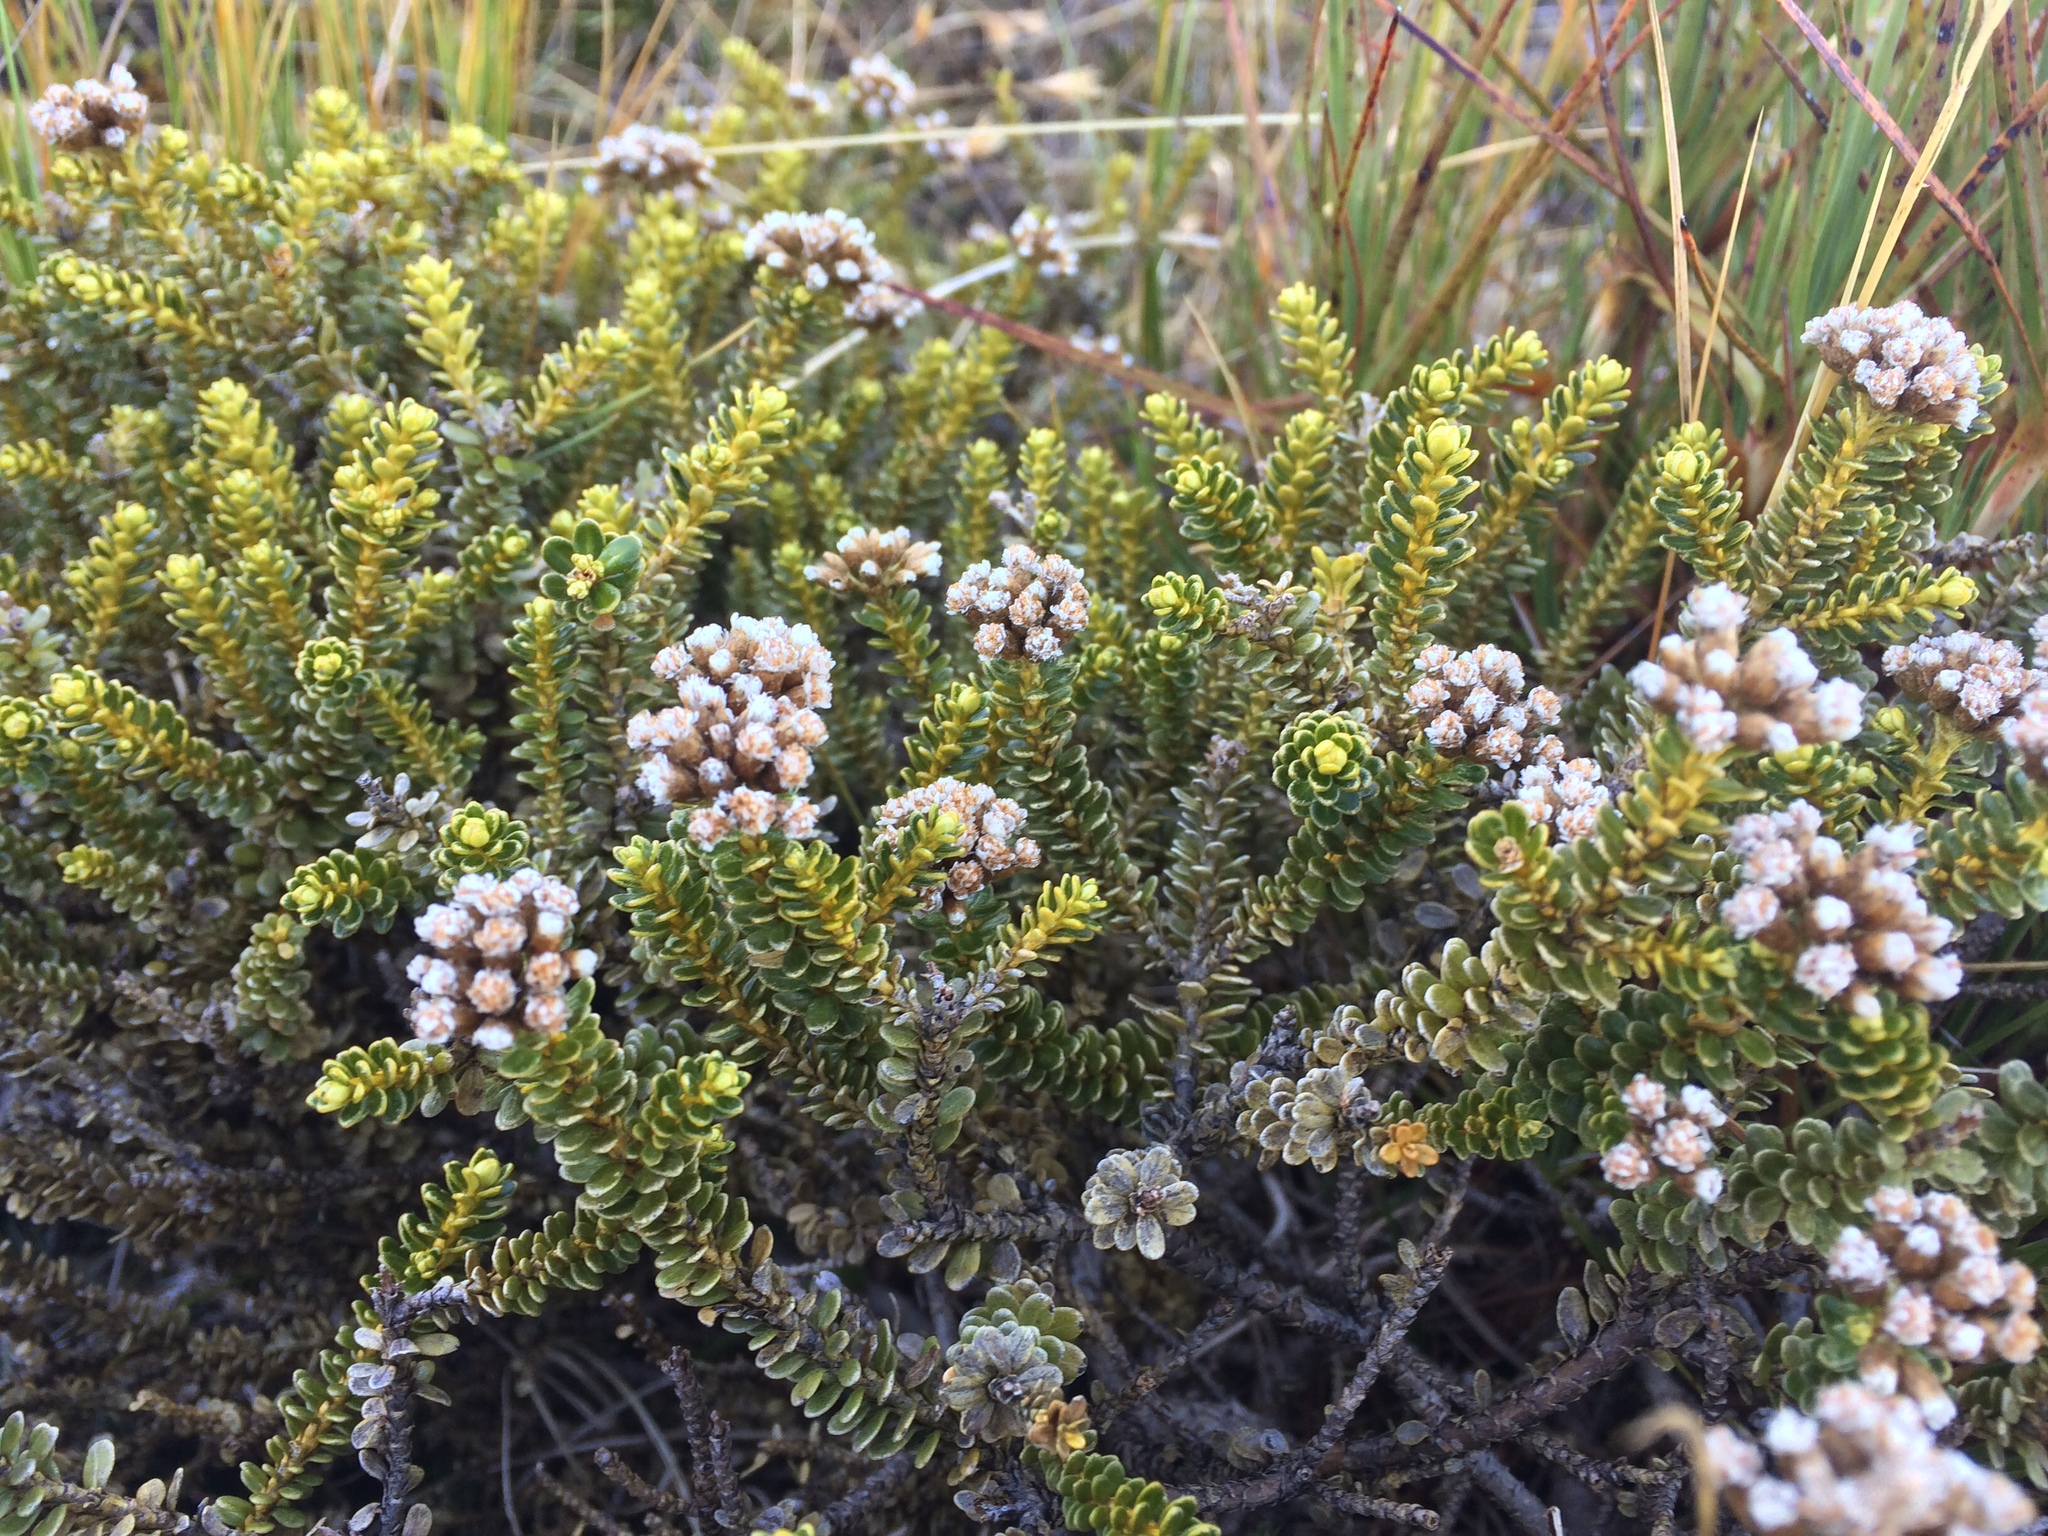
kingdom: Plantae
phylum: Tracheophyta
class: Magnoliopsida
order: Asterales
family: Asteraceae
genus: Ozothamnus
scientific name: Ozothamnus leptophyllus
